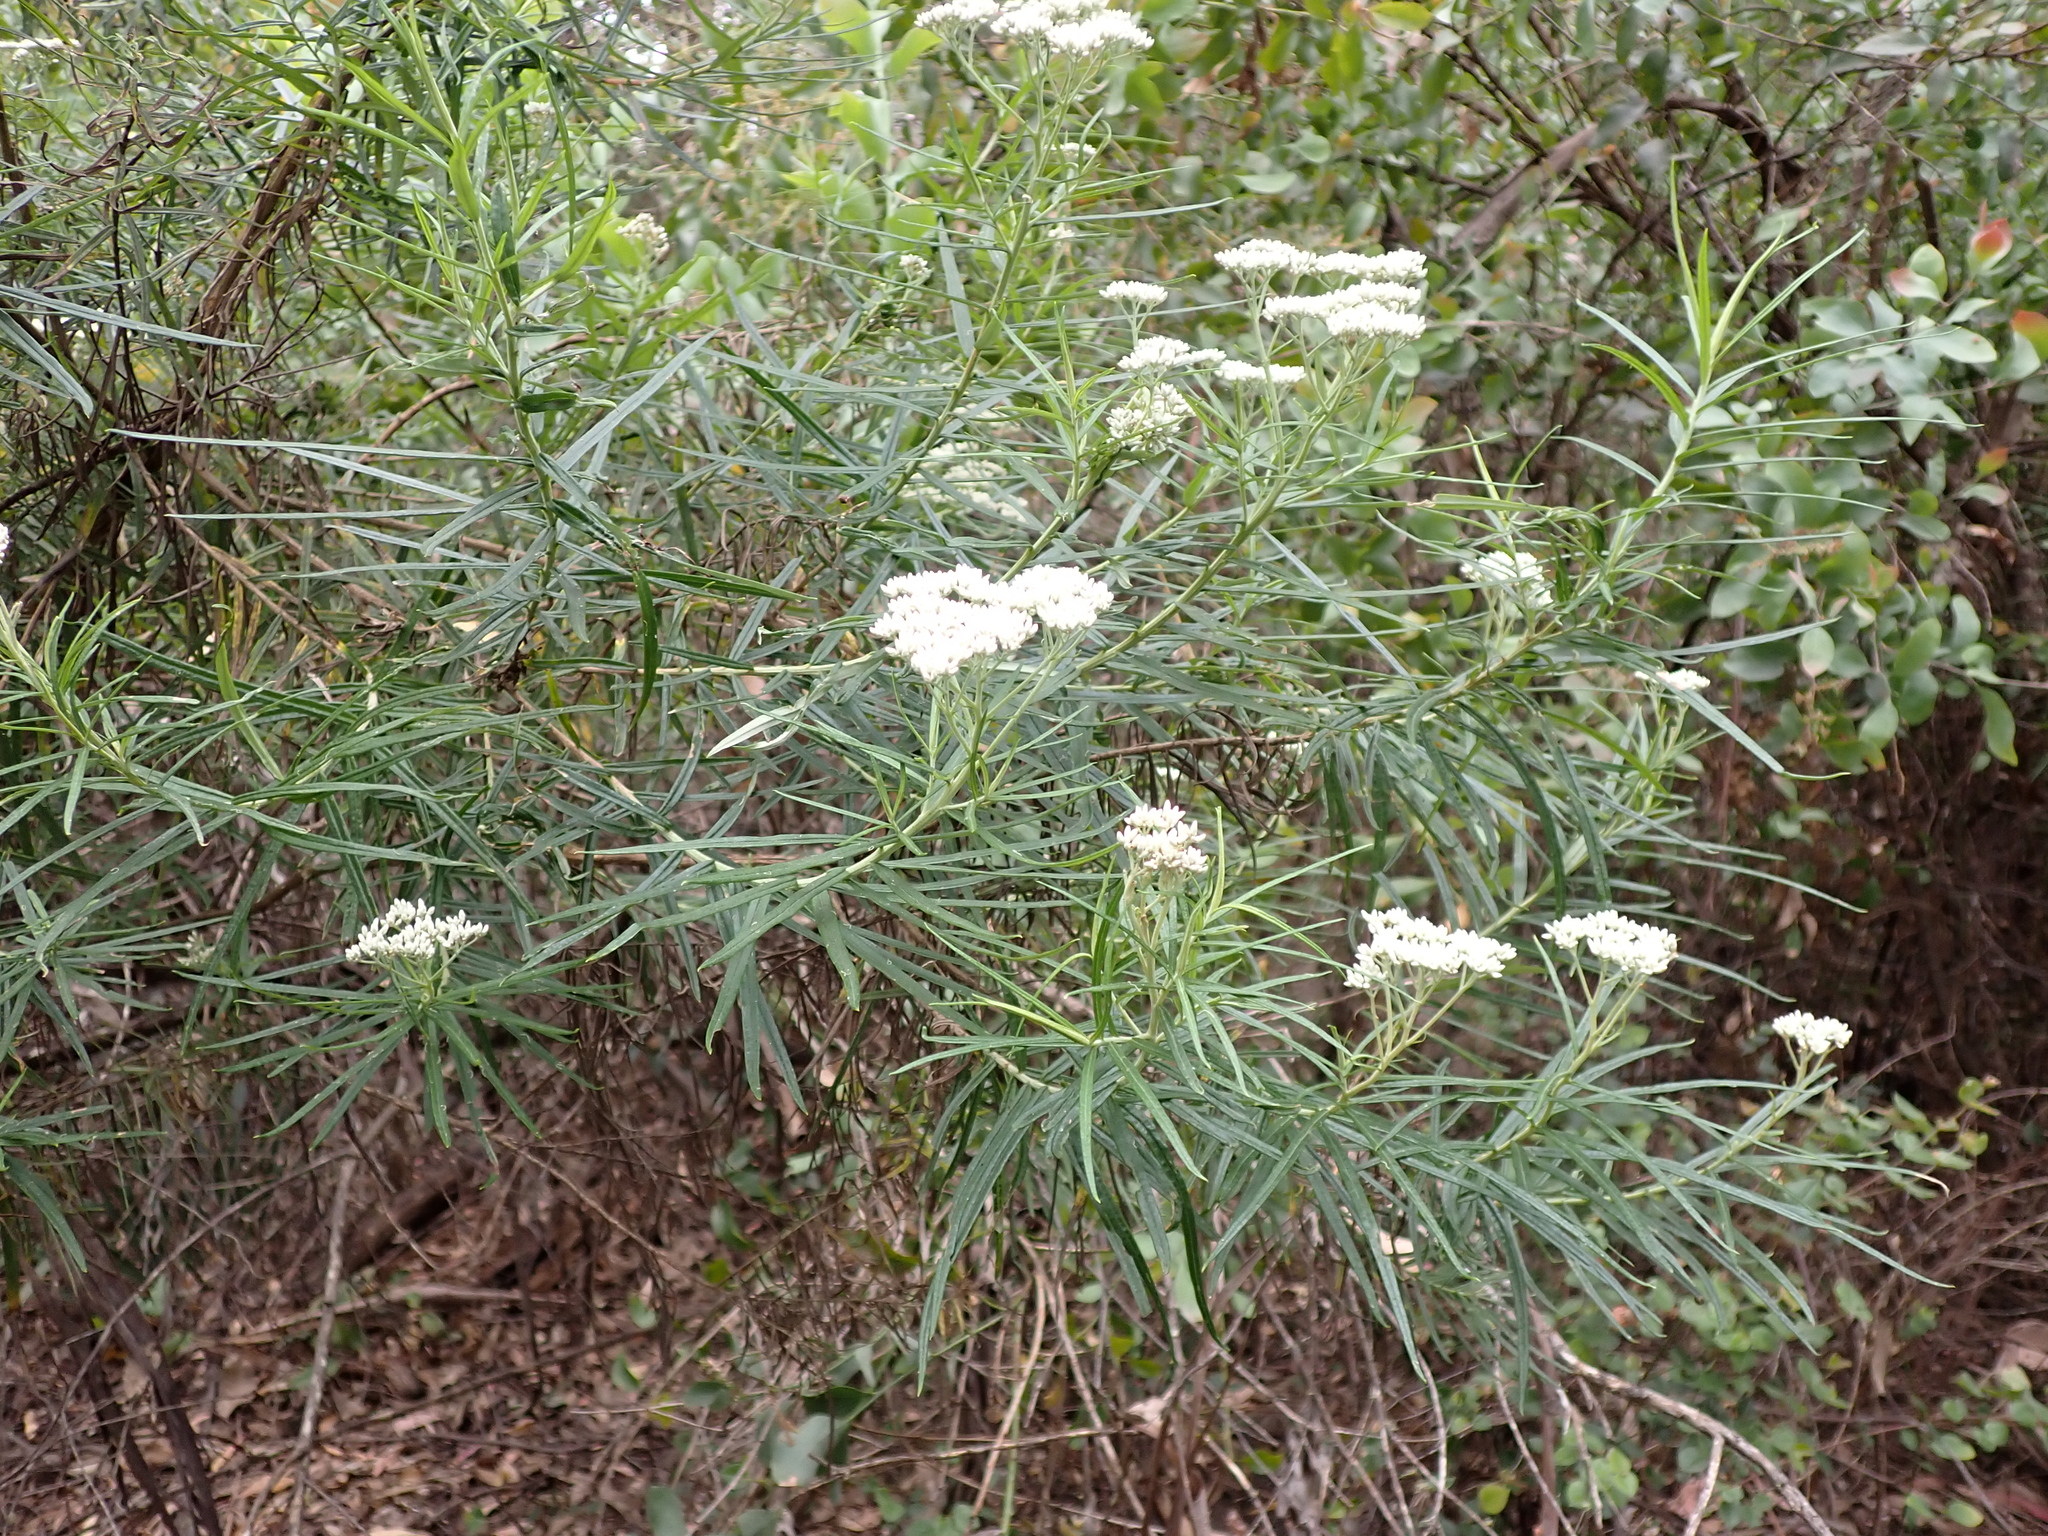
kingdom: Plantae
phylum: Tracheophyta
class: Magnoliopsida
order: Asterales
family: Asteraceae
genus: Cassinia
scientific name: Cassinia longifolia
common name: Longleaf-dogwood
